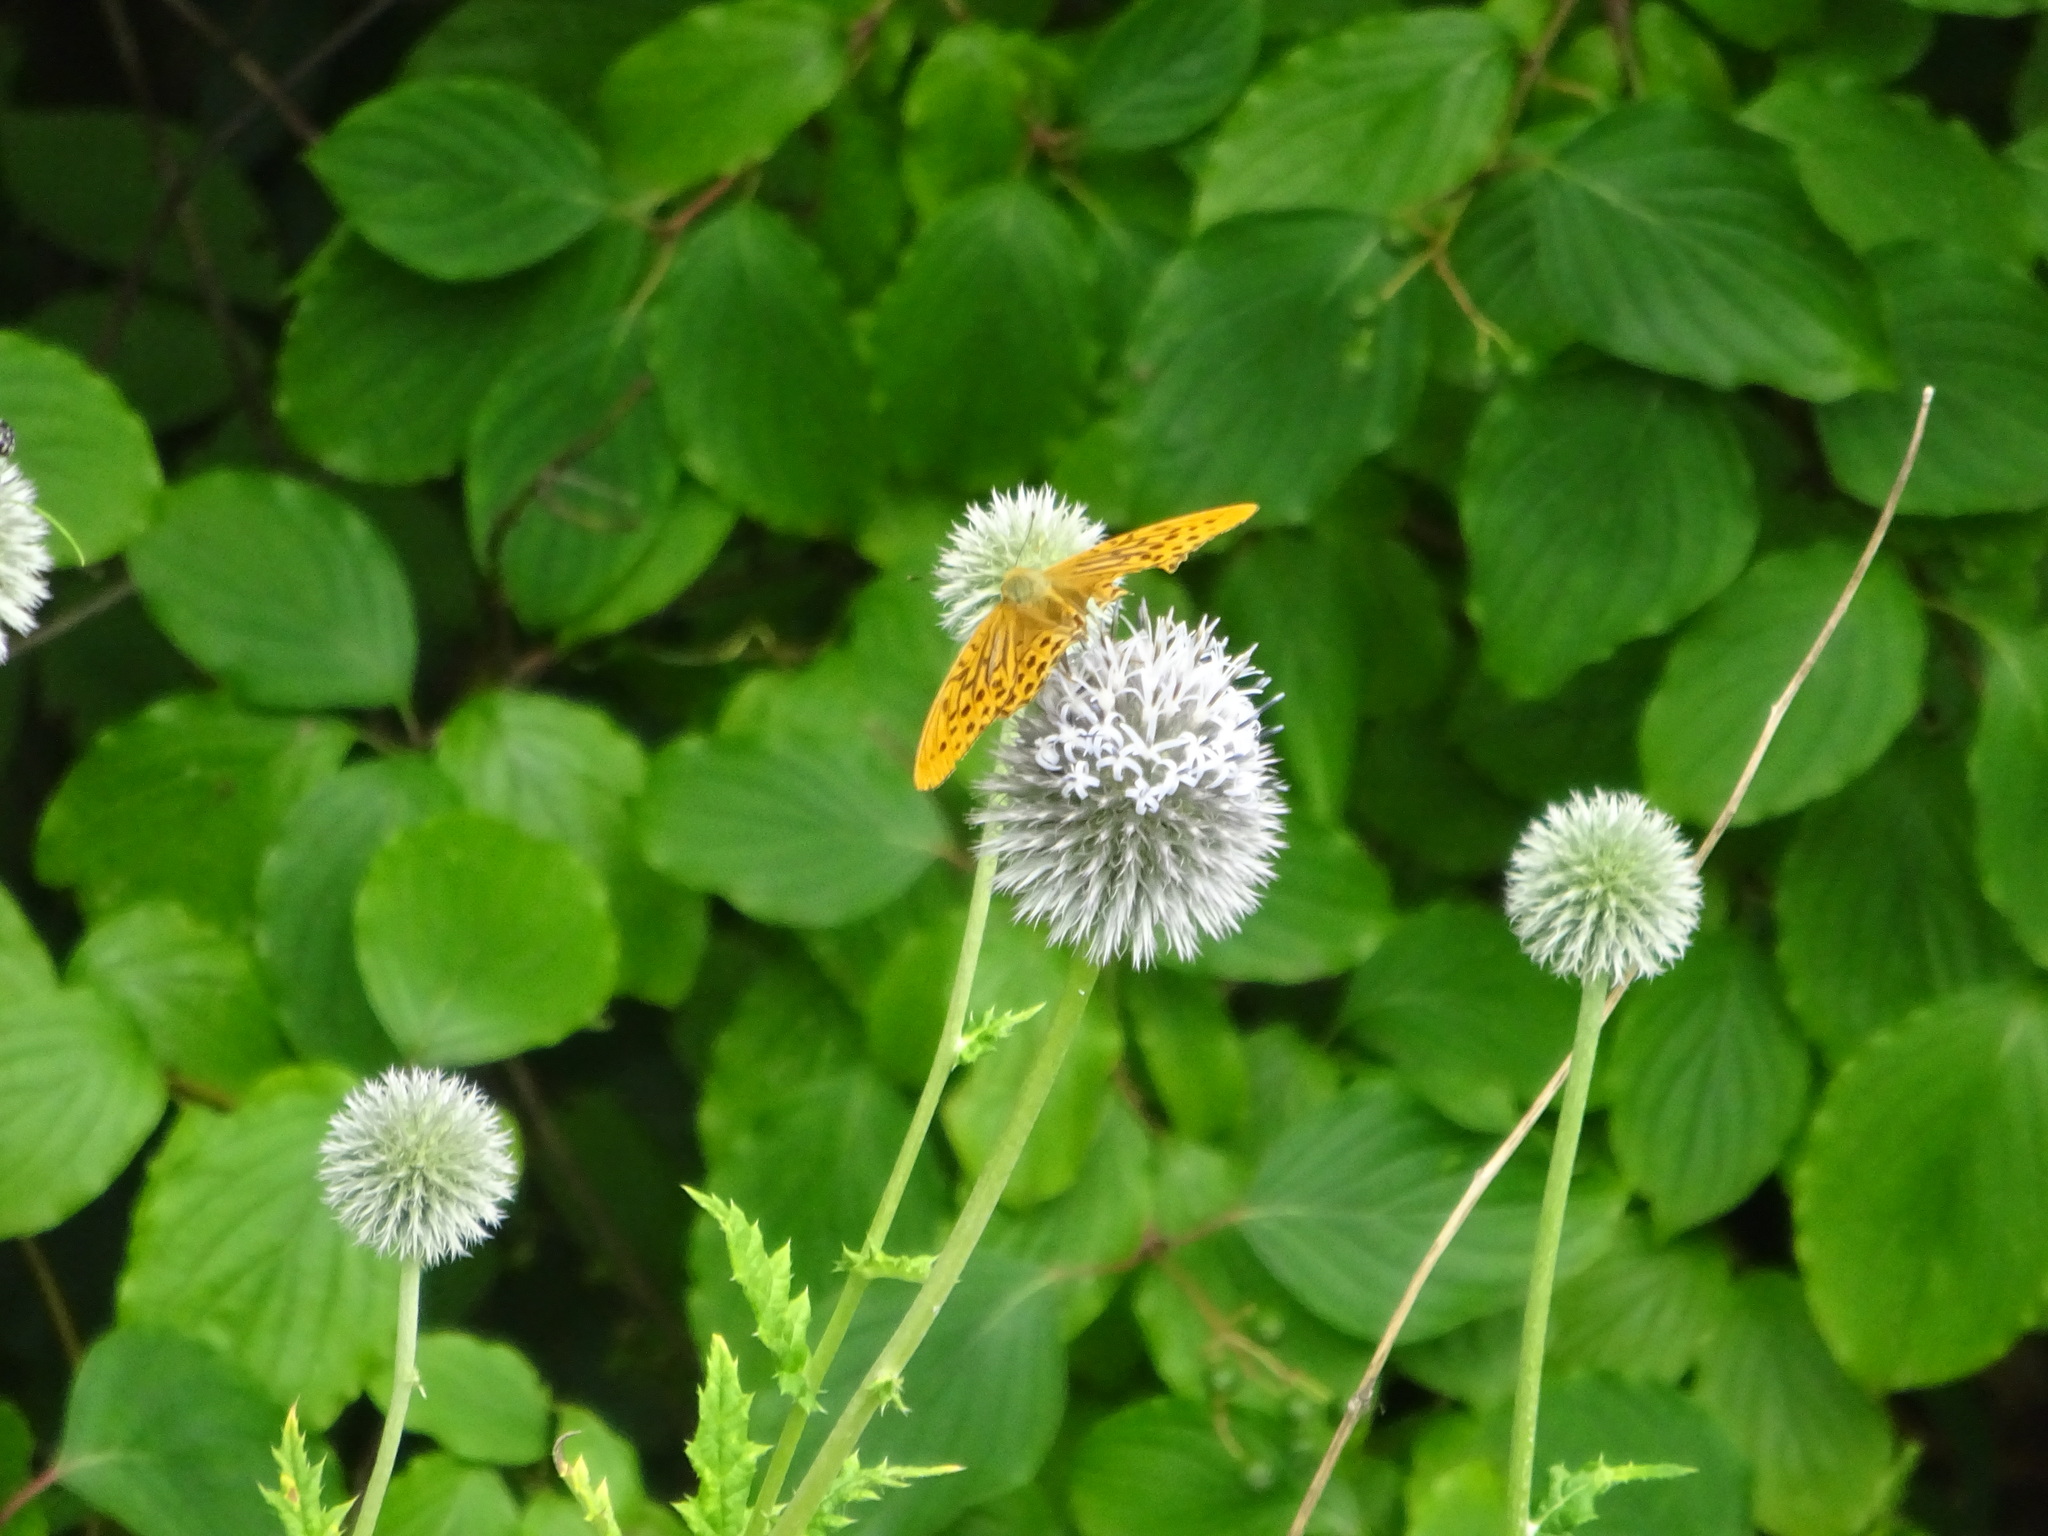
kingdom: Animalia
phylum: Arthropoda
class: Insecta
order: Lepidoptera
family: Nymphalidae
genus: Argynnis
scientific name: Argynnis paphia
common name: Silver-washed fritillary
